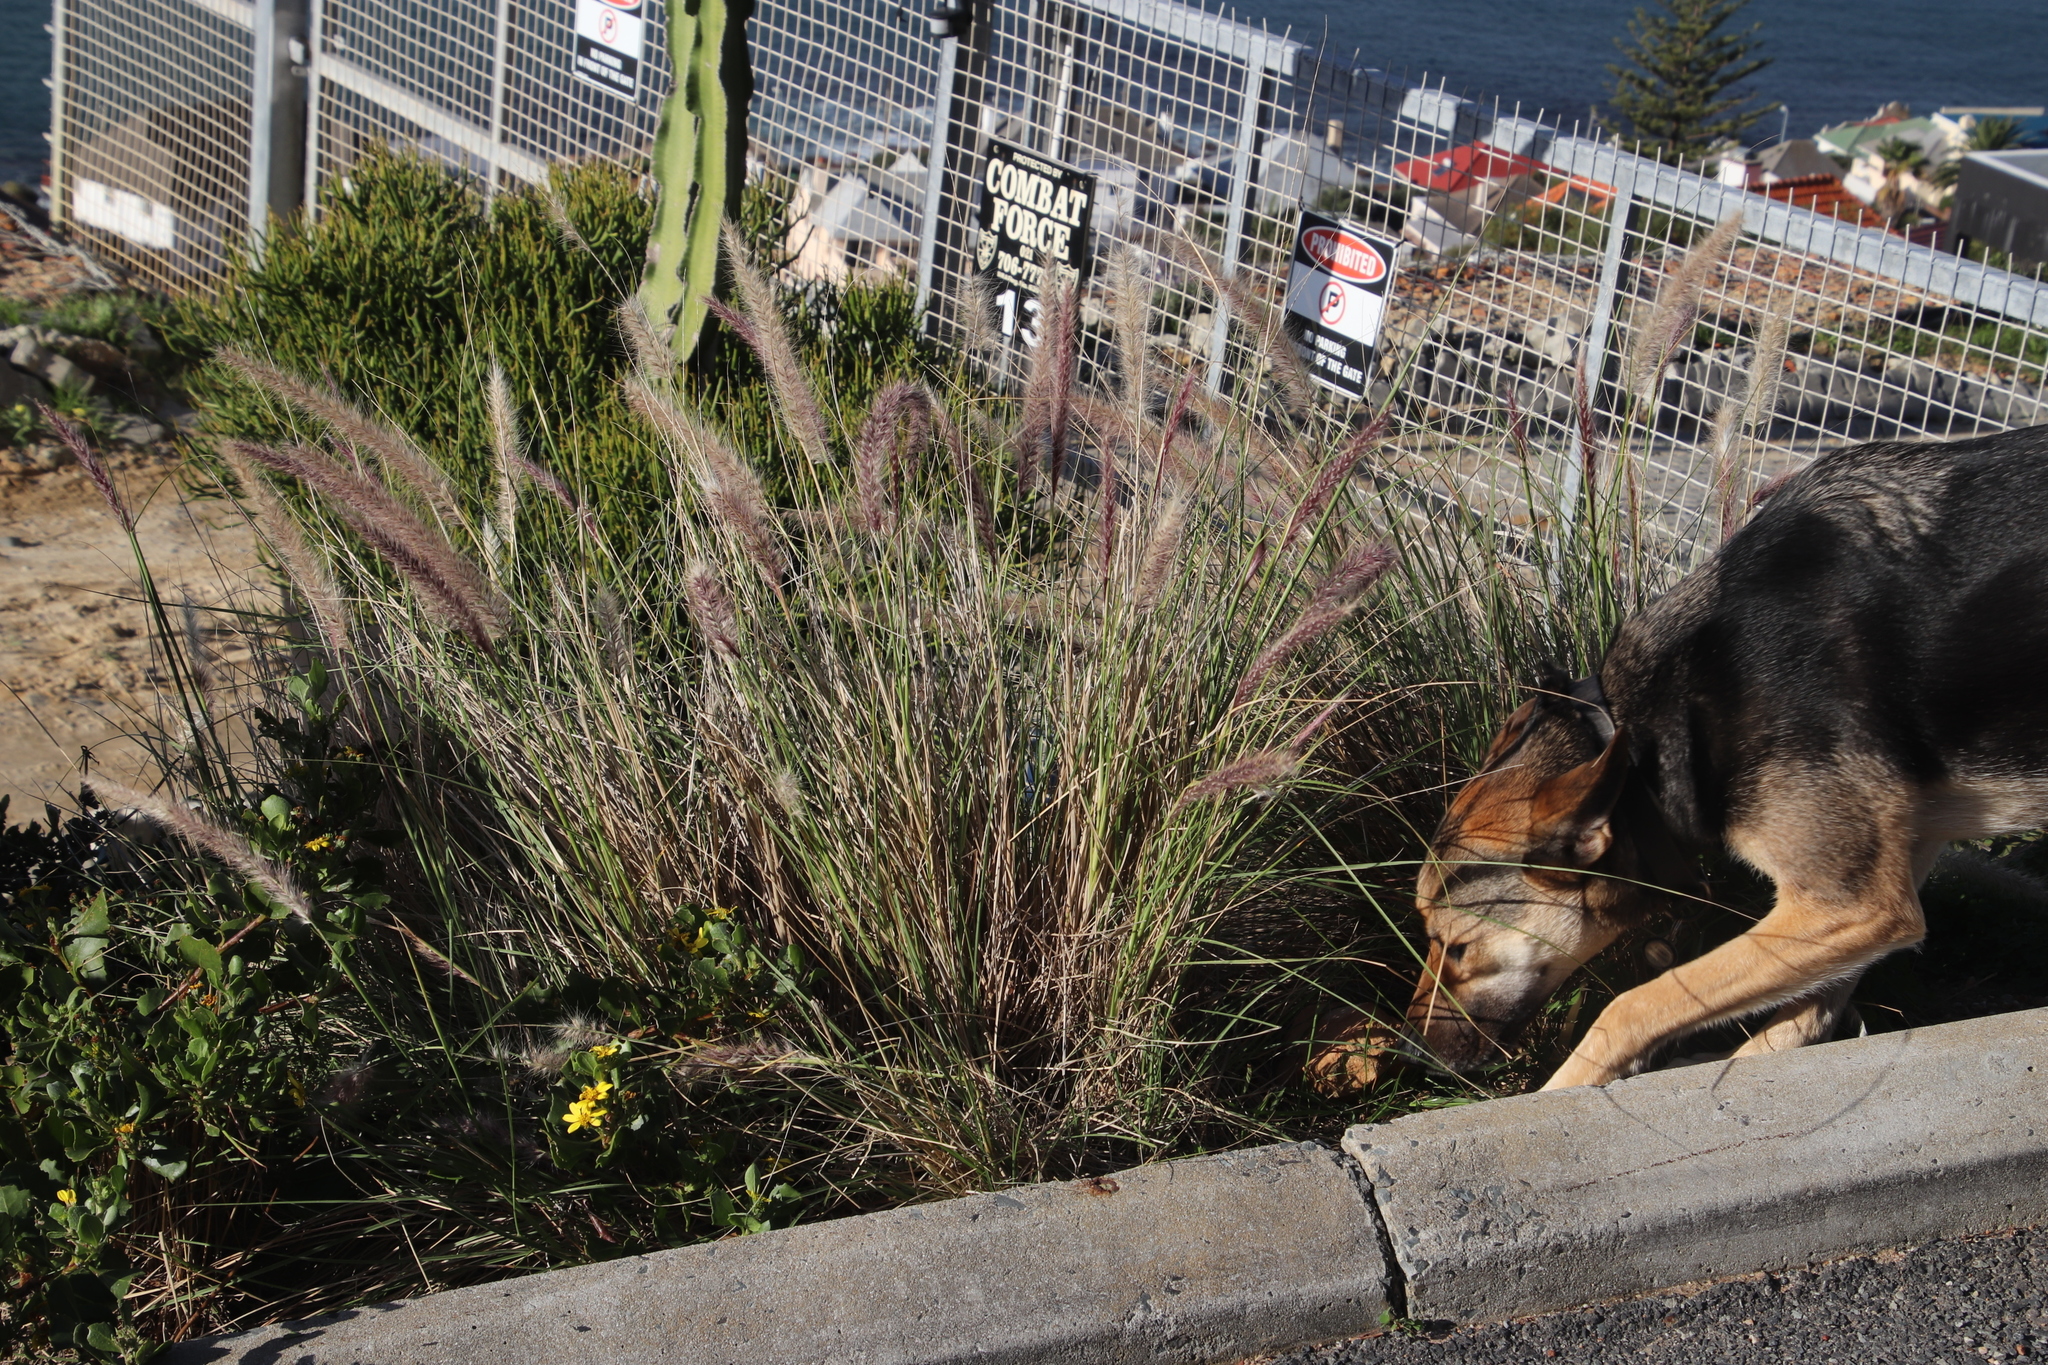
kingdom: Plantae
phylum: Tracheophyta
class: Liliopsida
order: Poales
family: Poaceae
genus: Cenchrus
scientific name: Cenchrus setaceus
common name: Crimson fountaingrass
